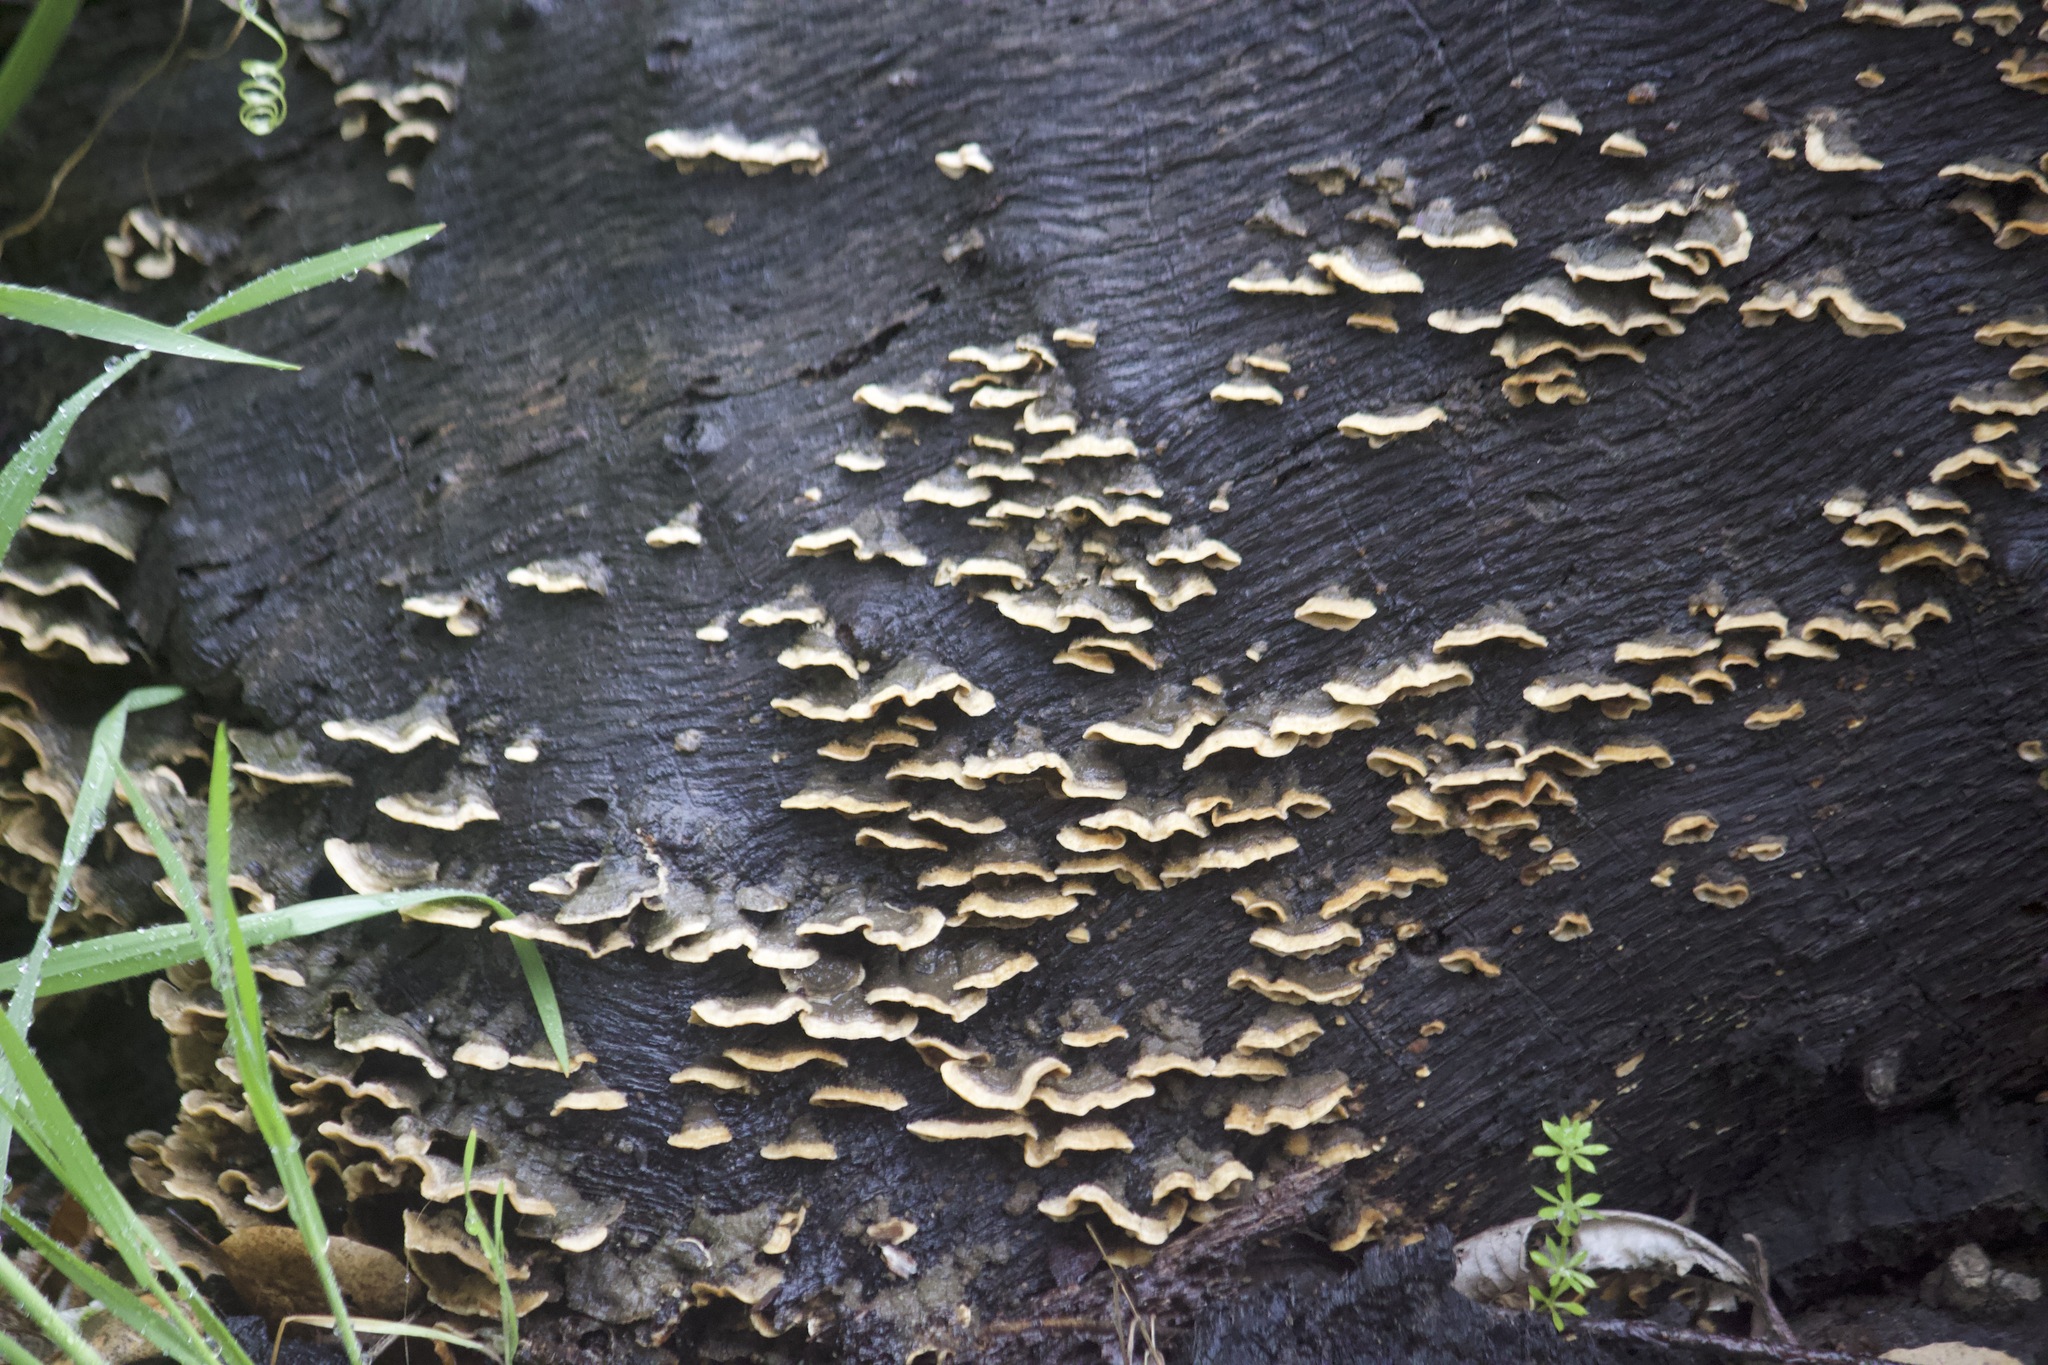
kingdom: Fungi
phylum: Basidiomycota
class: Agaricomycetes
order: Russulales
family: Stereaceae
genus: Stereum
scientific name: Stereum hirsutum
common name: Hairy curtain crust
